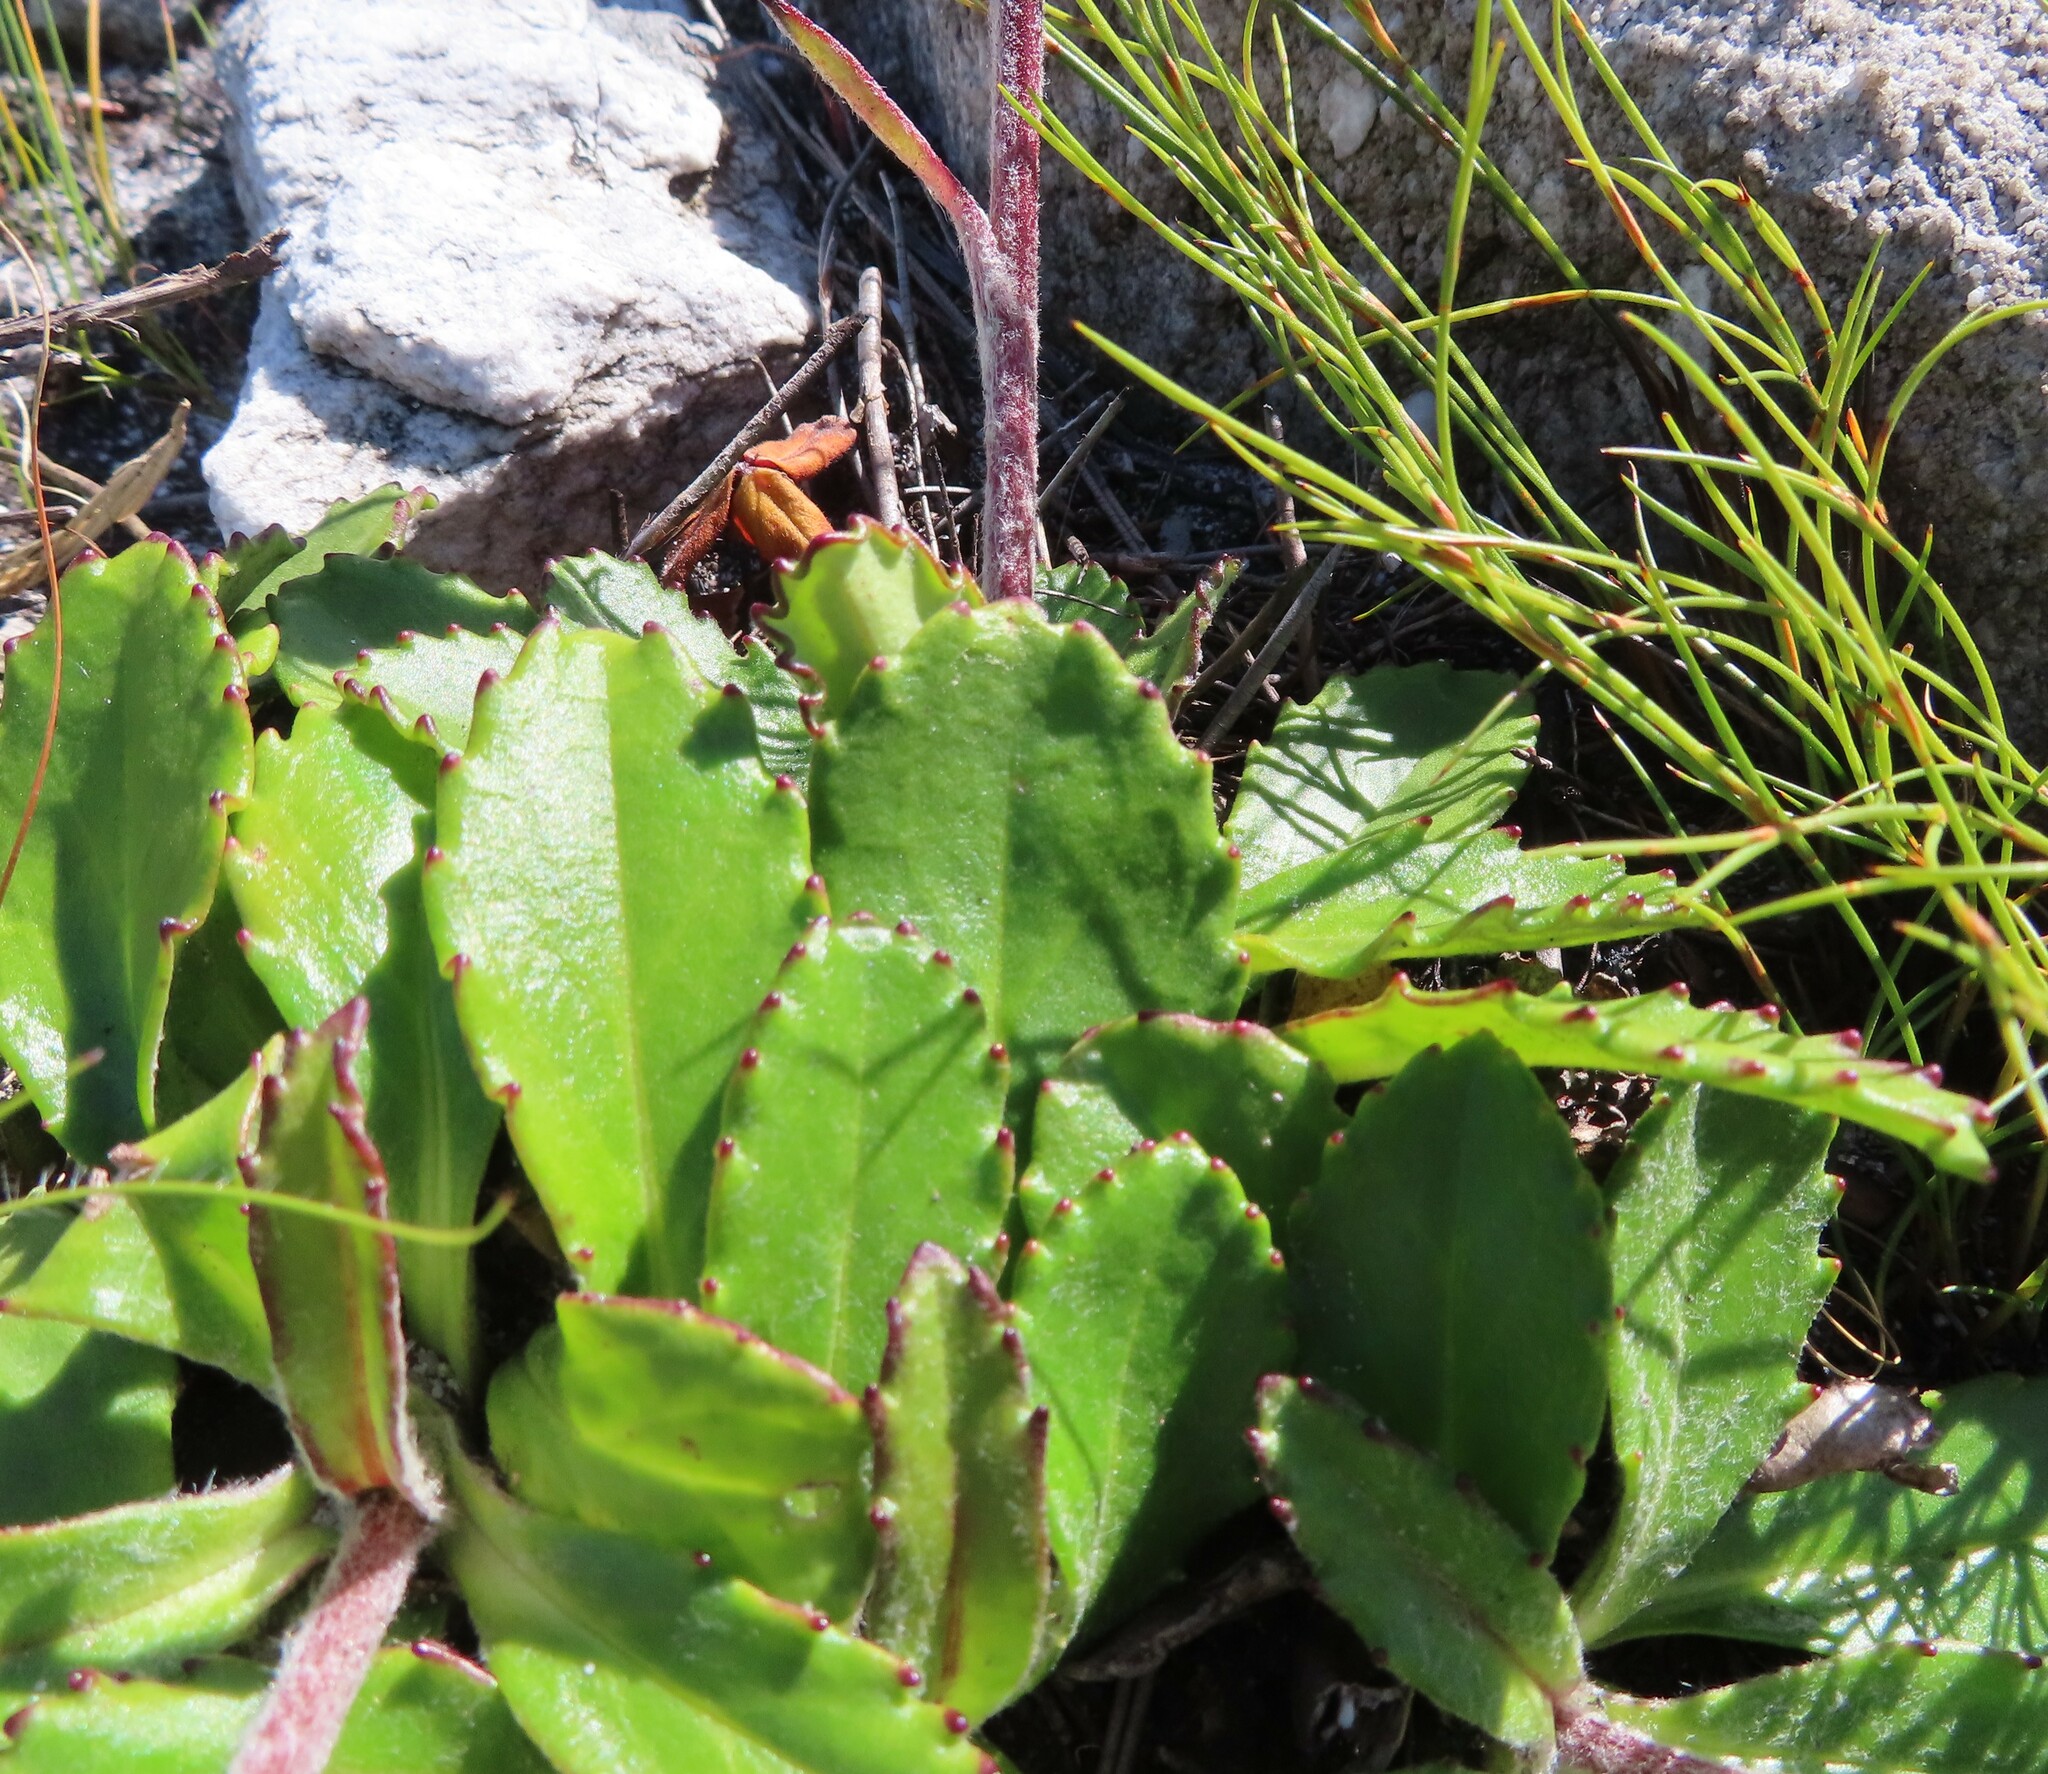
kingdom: Plantae
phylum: Tracheophyta
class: Magnoliopsida
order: Asterales
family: Asteraceae
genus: Zyrphelis
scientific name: Zyrphelis crenata
